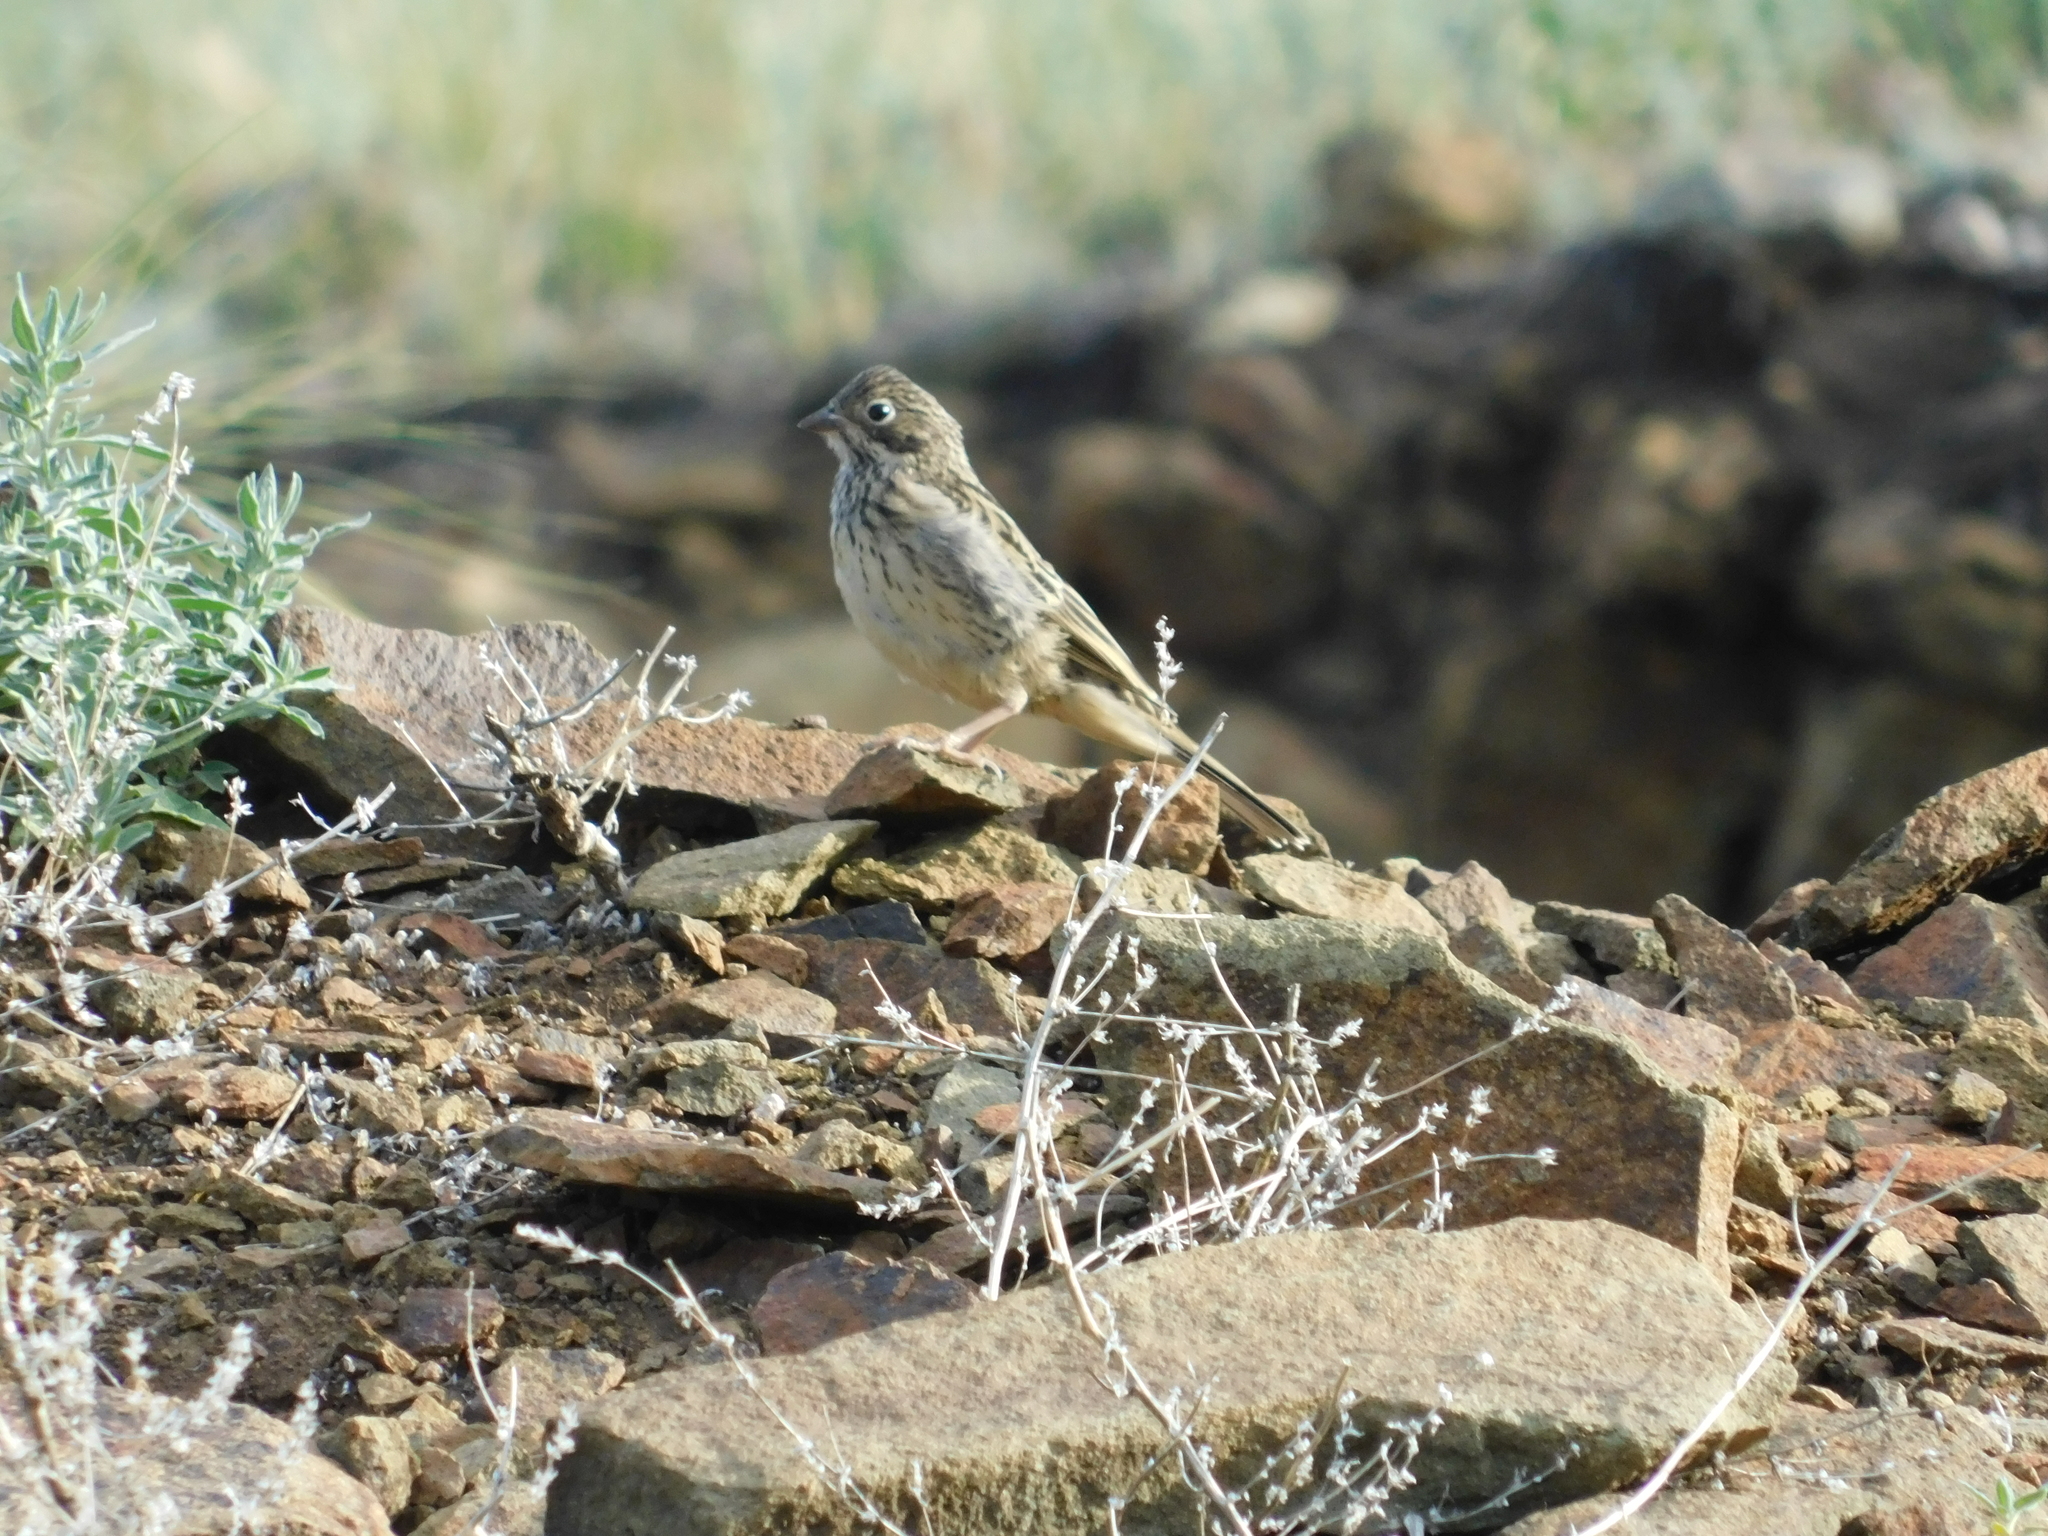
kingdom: Animalia
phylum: Chordata
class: Aves
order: Passeriformes
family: Emberizidae
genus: Emberiza
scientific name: Emberiza hortulana
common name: Ortolan bunting
